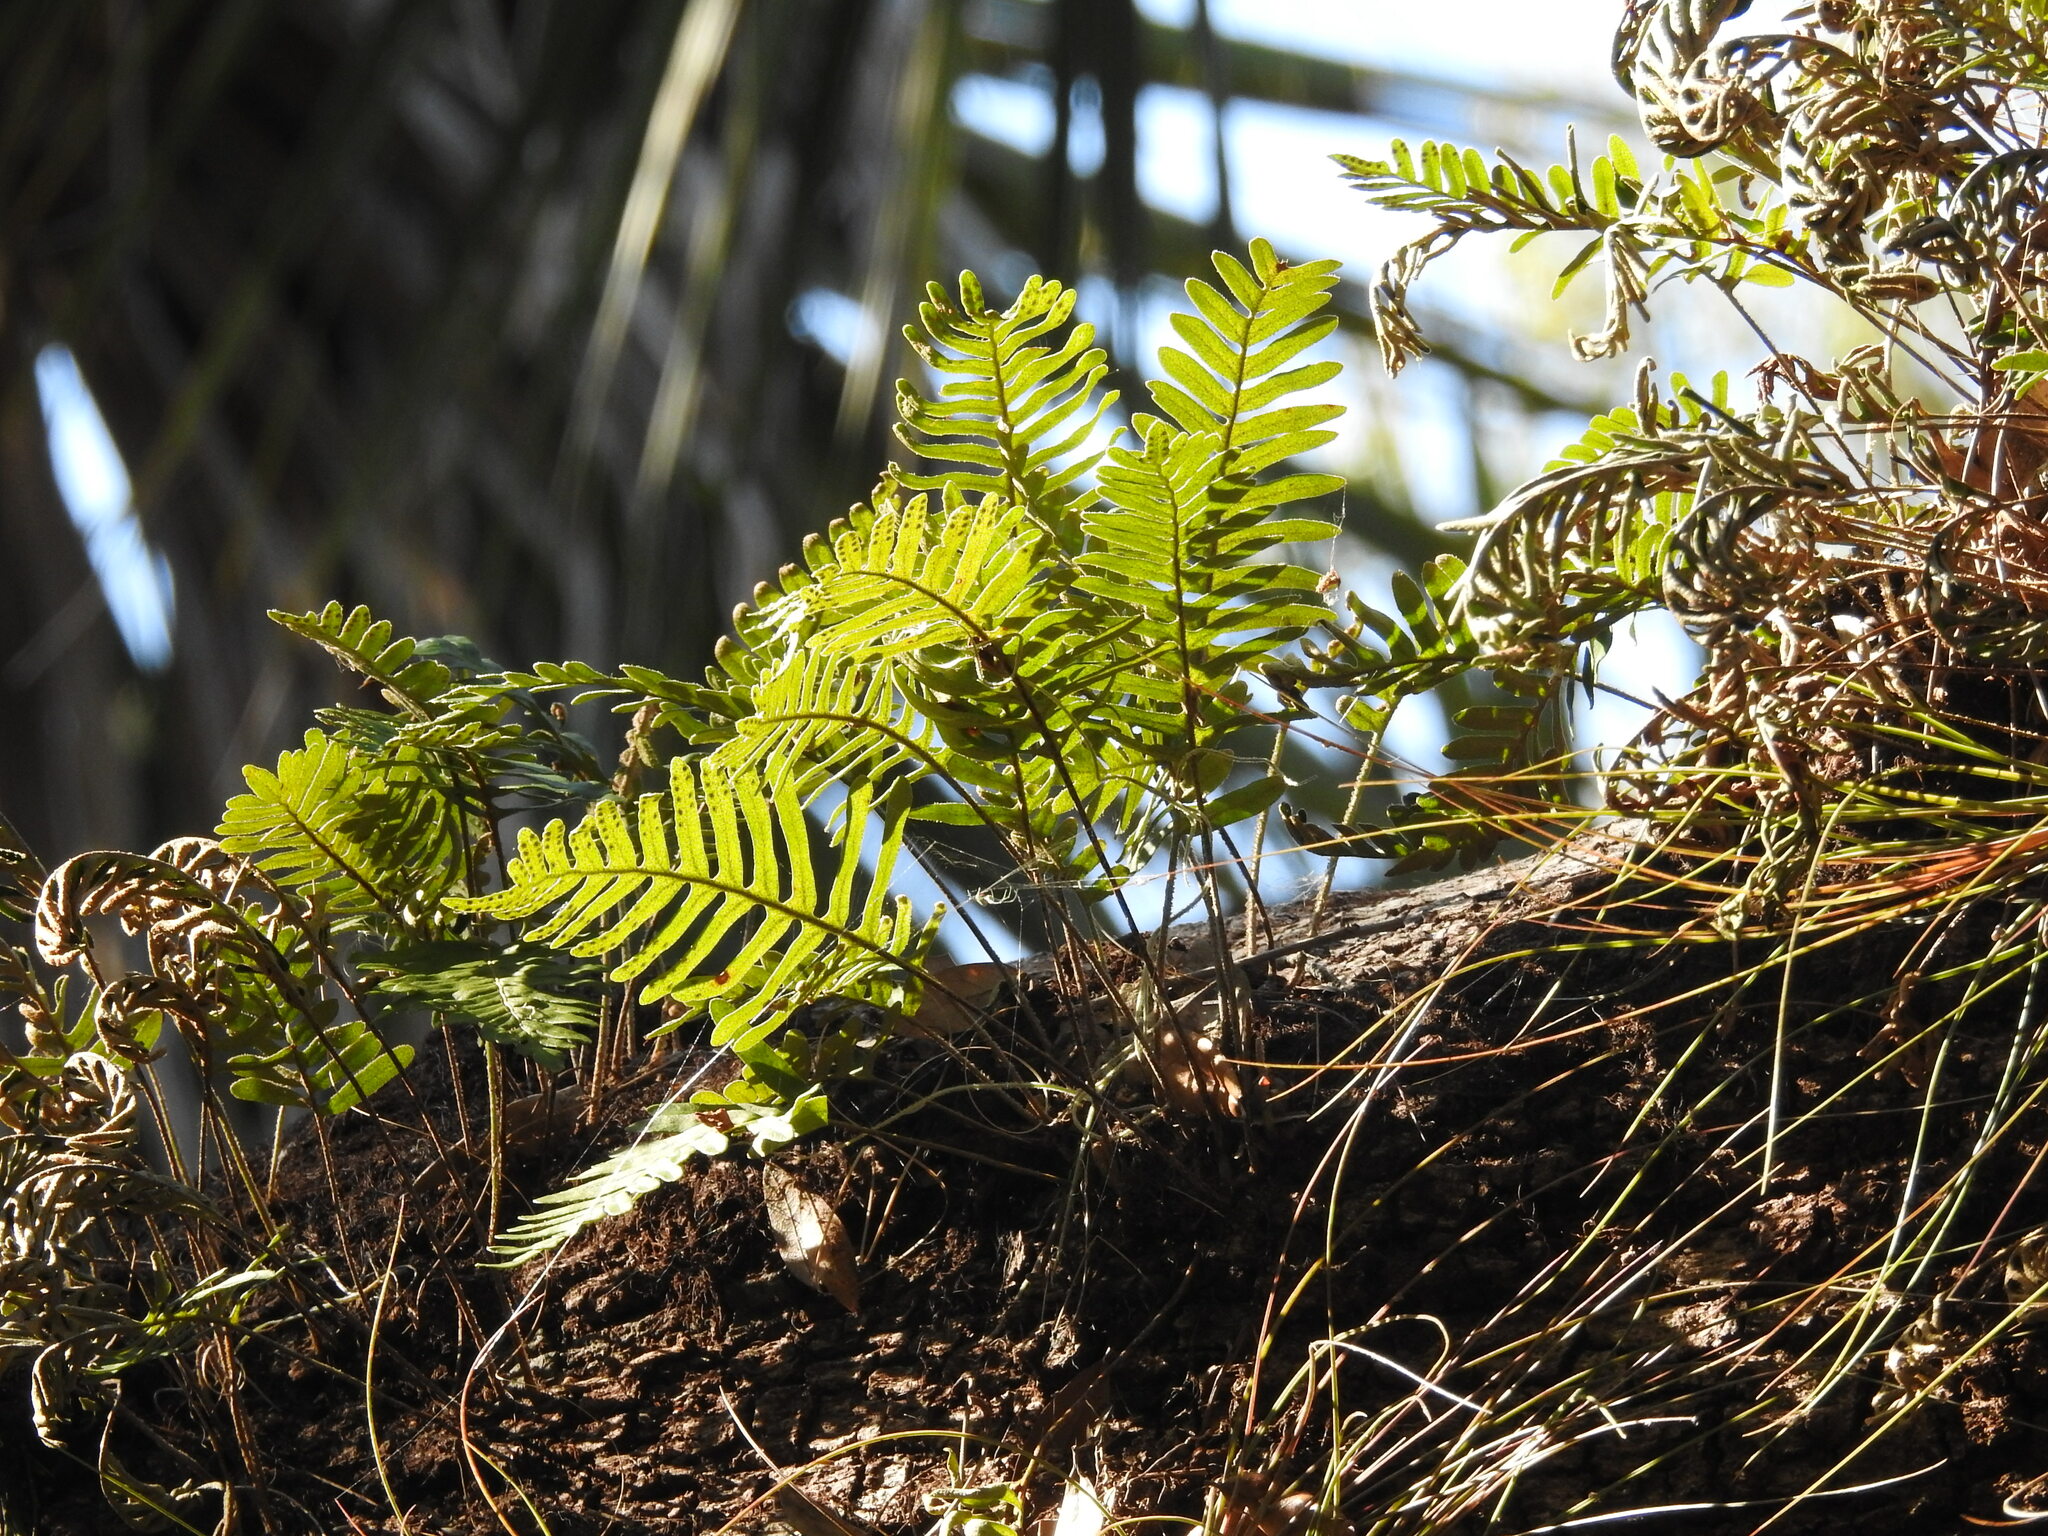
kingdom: Plantae
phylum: Tracheophyta
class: Polypodiopsida
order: Polypodiales
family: Polypodiaceae
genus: Pleopeltis
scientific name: Pleopeltis michauxiana
